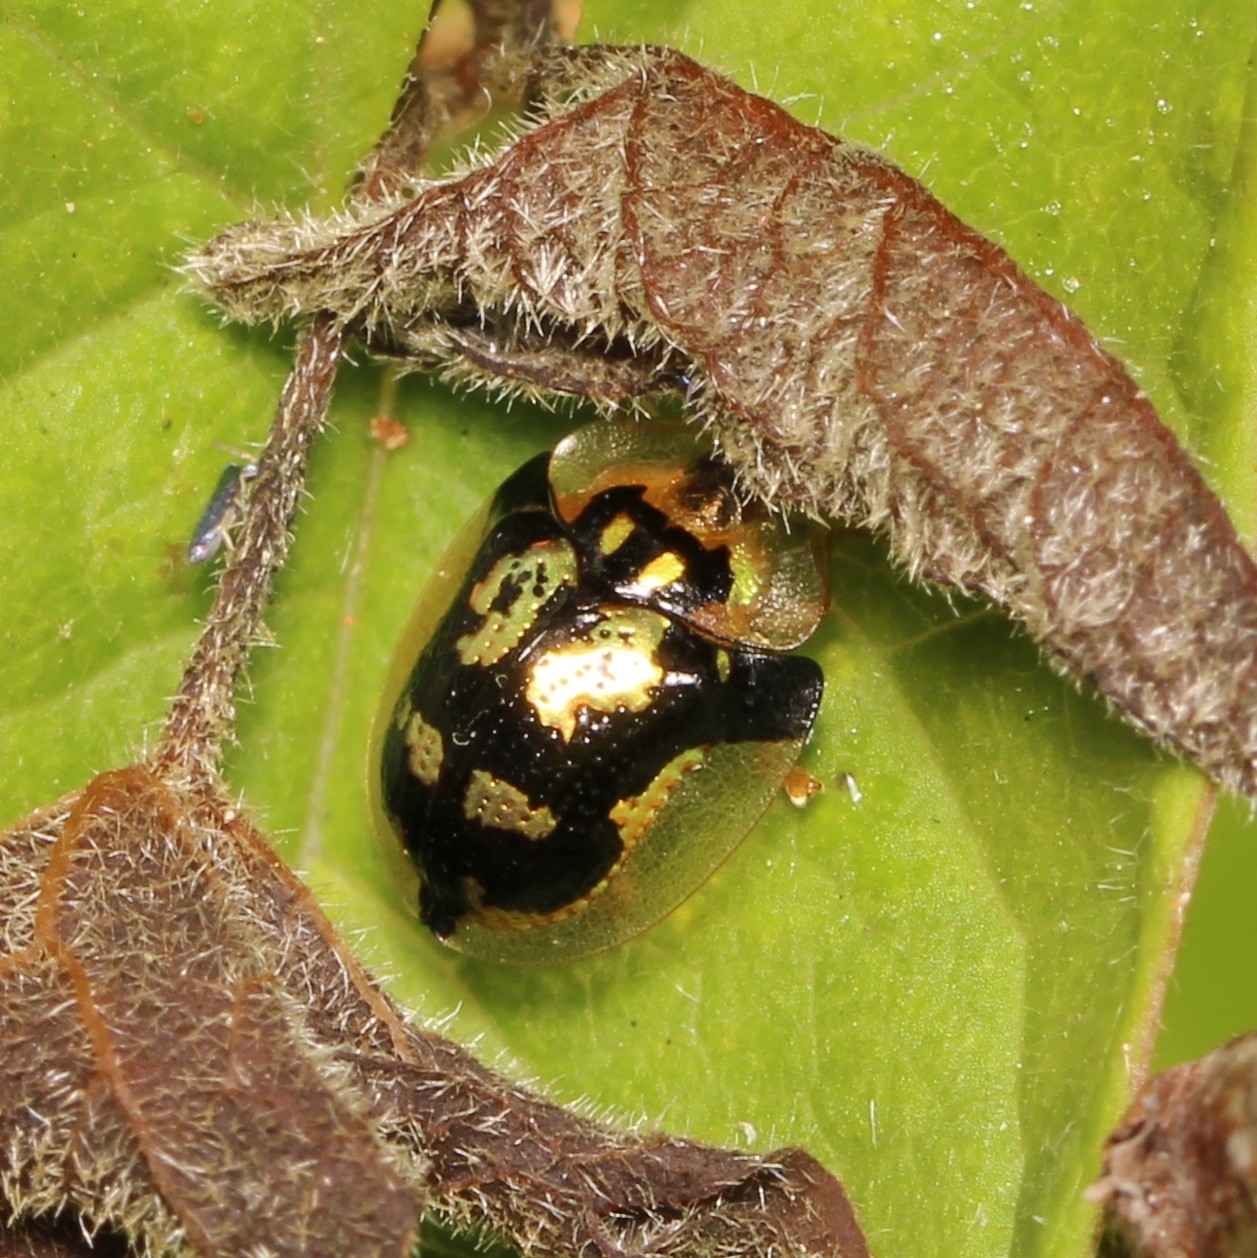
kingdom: Animalia
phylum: Arthropoda
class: Insecta
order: Coleoptera
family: Chrysomelidae
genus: Deloyala
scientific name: Deloyala guttata
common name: Mottled tortoise beetle
